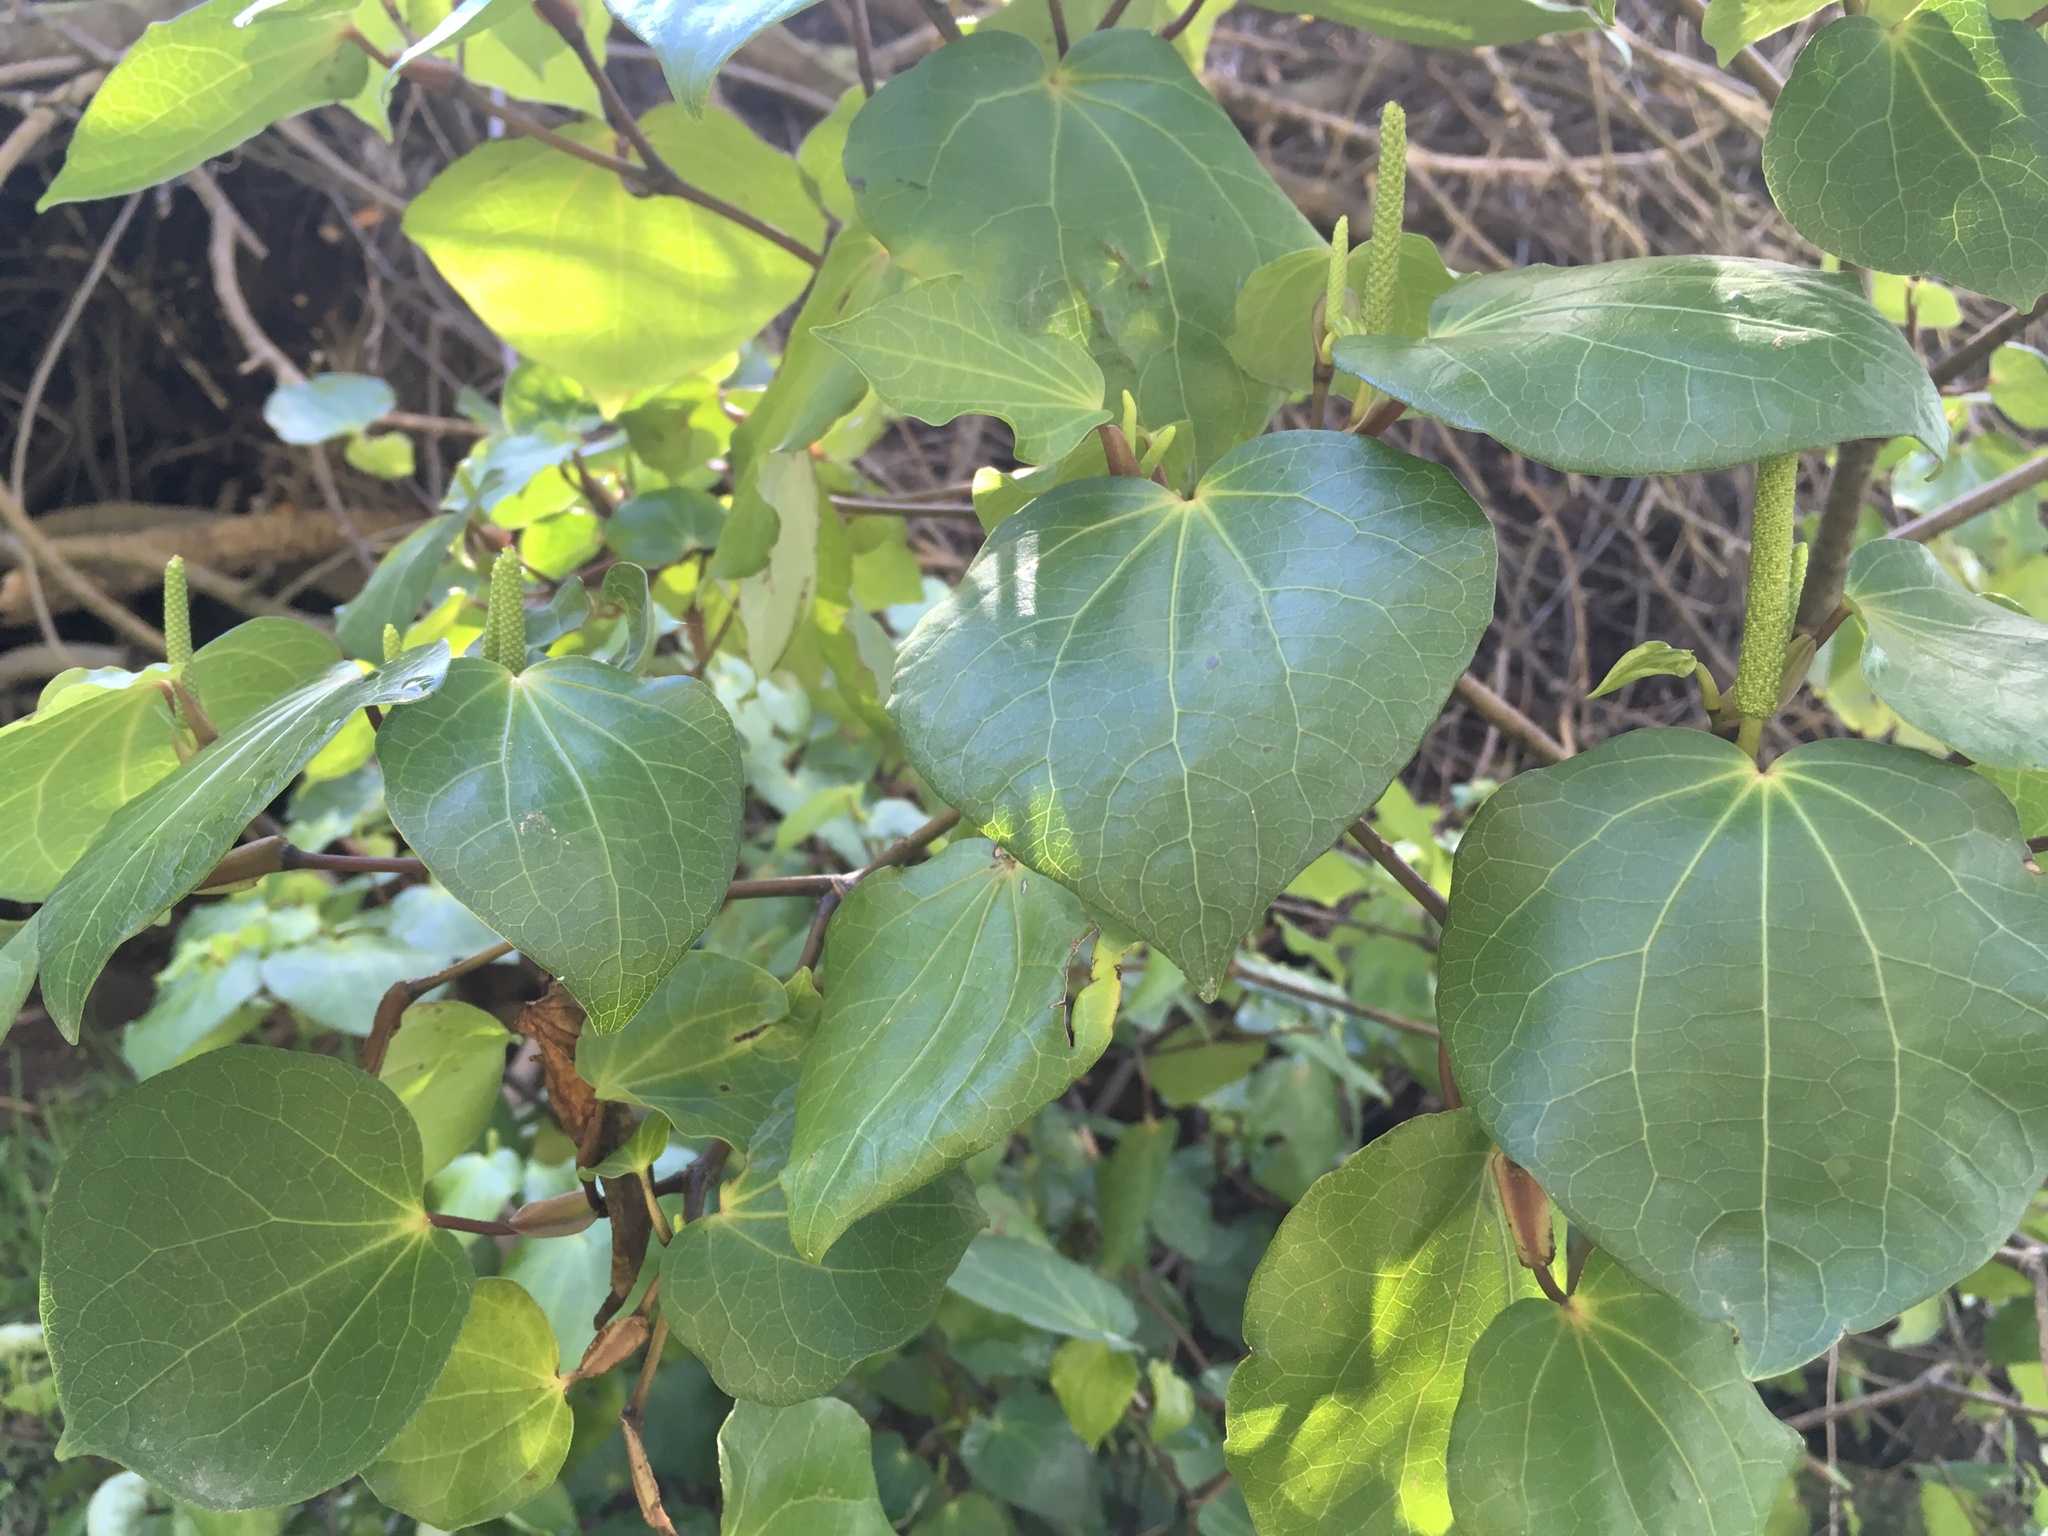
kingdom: Plantae
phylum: Tracheophyta
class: Magnoliopsida
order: Piperales
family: Piperaceae
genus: Macropiper
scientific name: Macropiper excelsum
